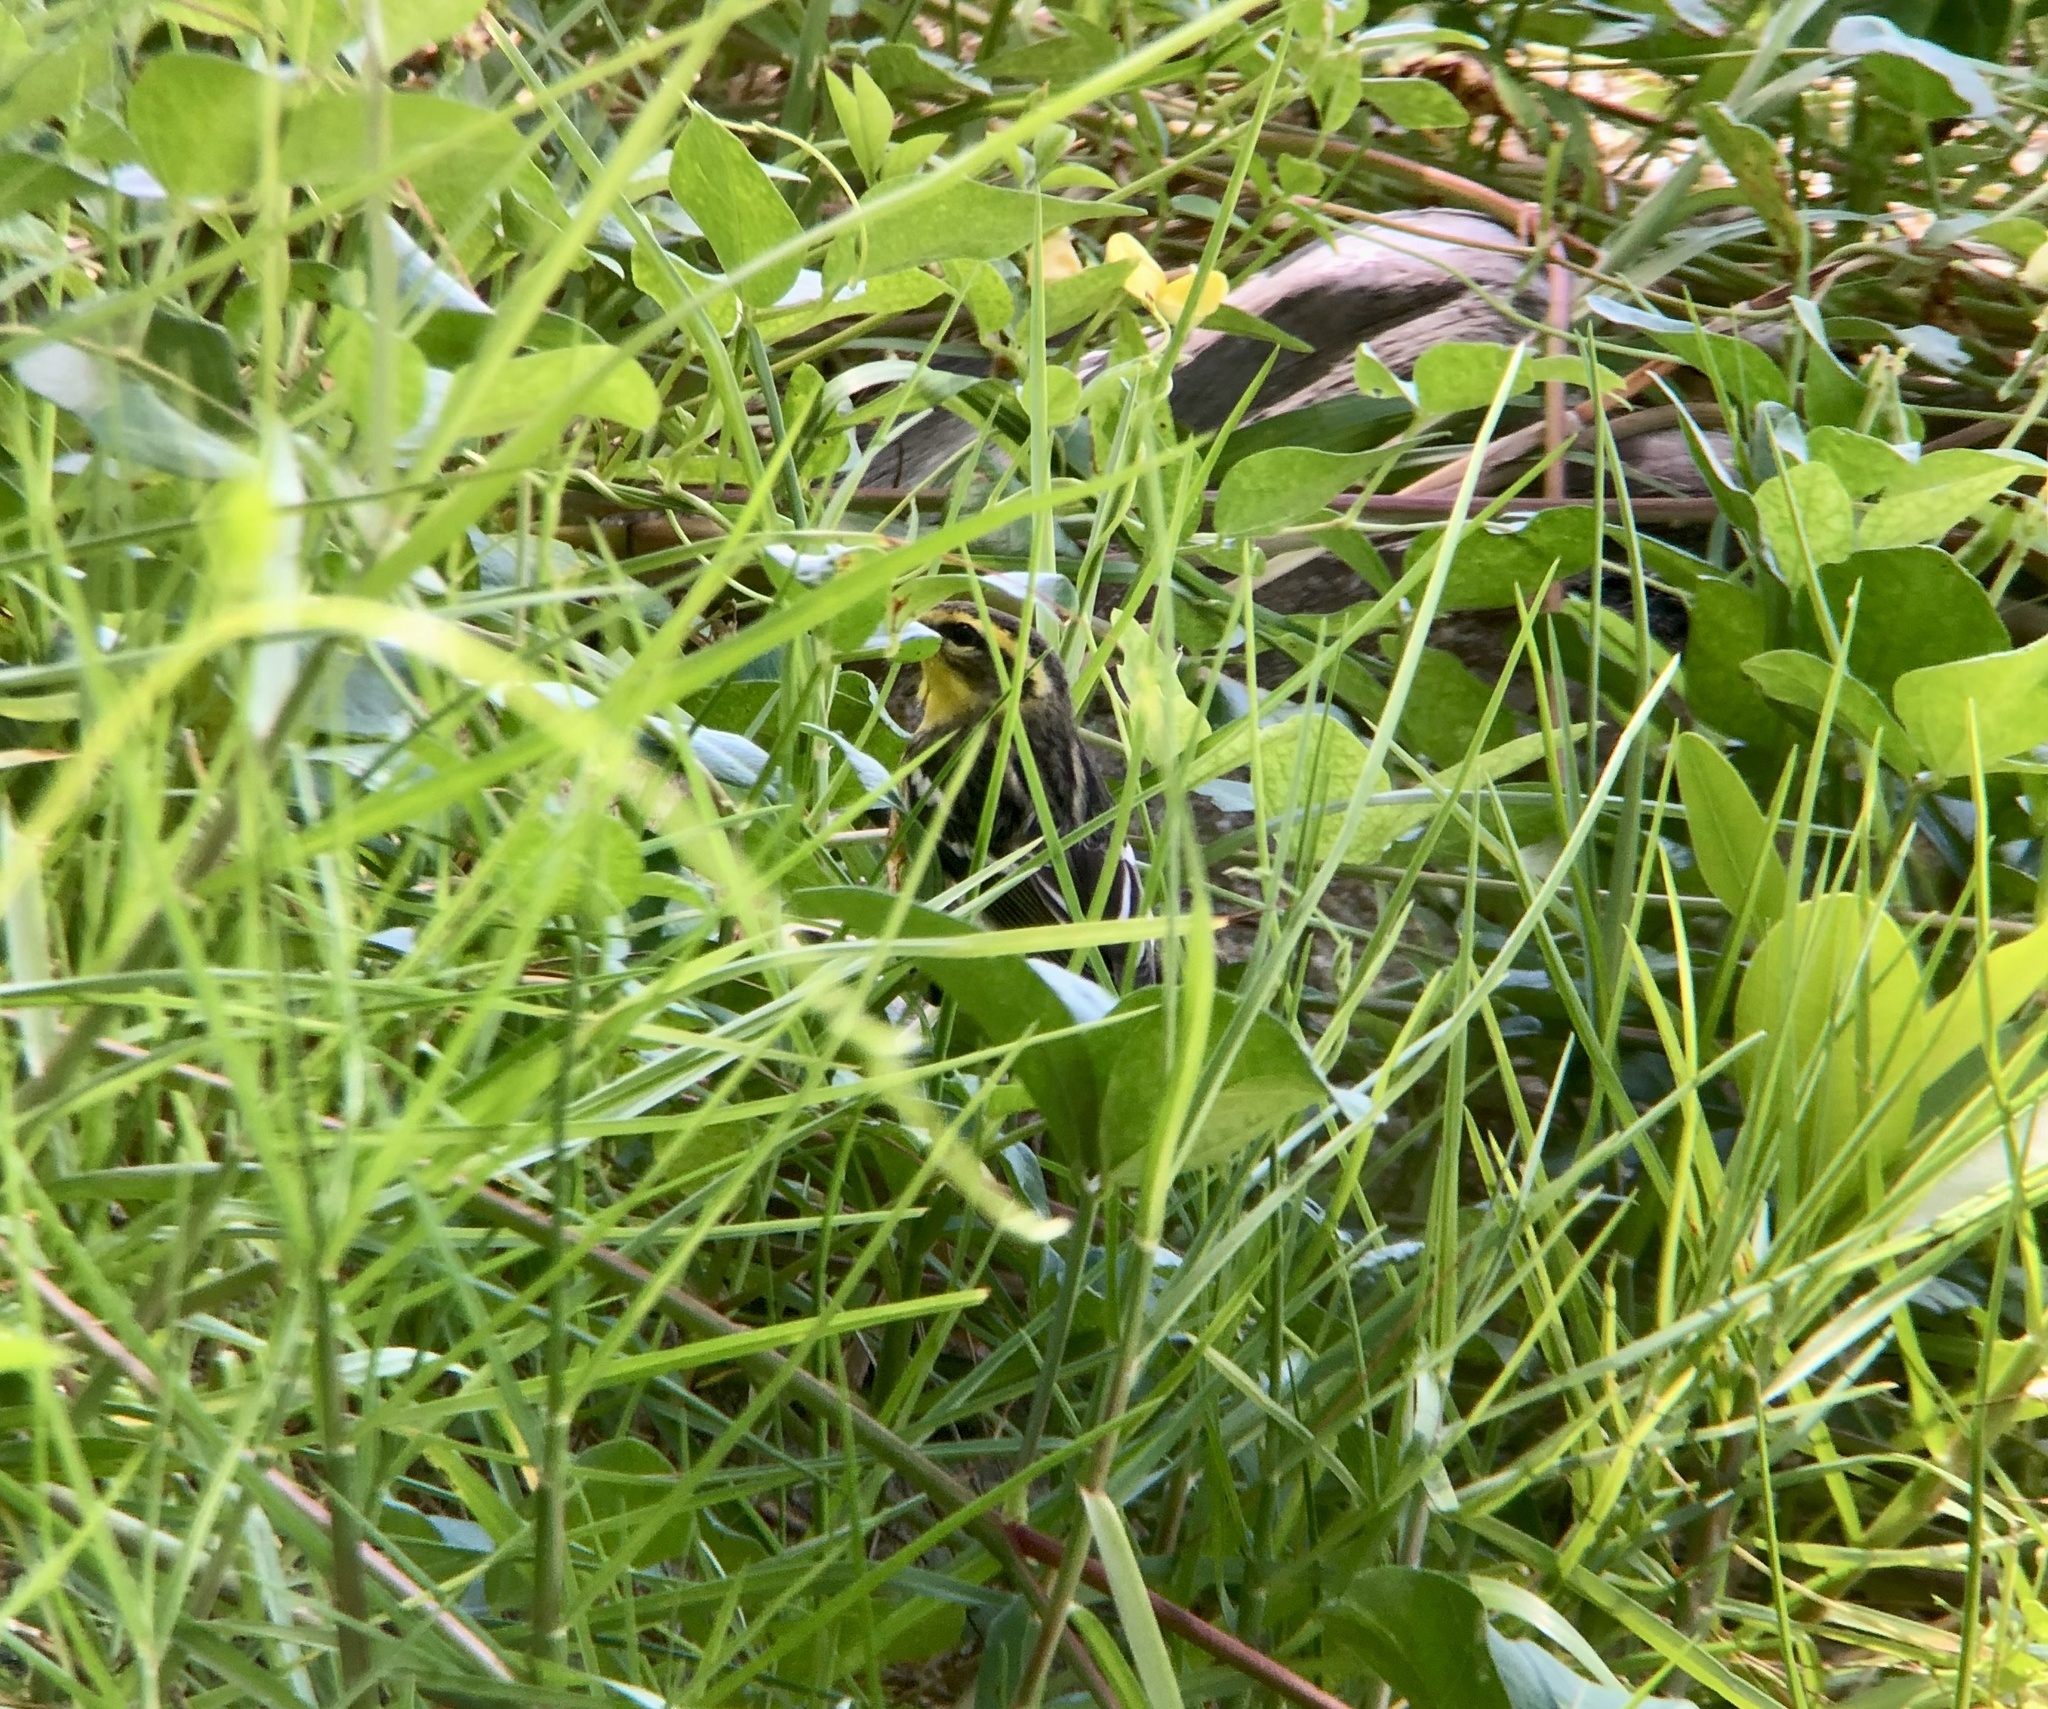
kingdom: Animalia
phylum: Chordata
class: Aves
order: Passeriformes
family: Parulidae
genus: Setophaga
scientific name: Setophaga fusca
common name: Blackburnian warbler
